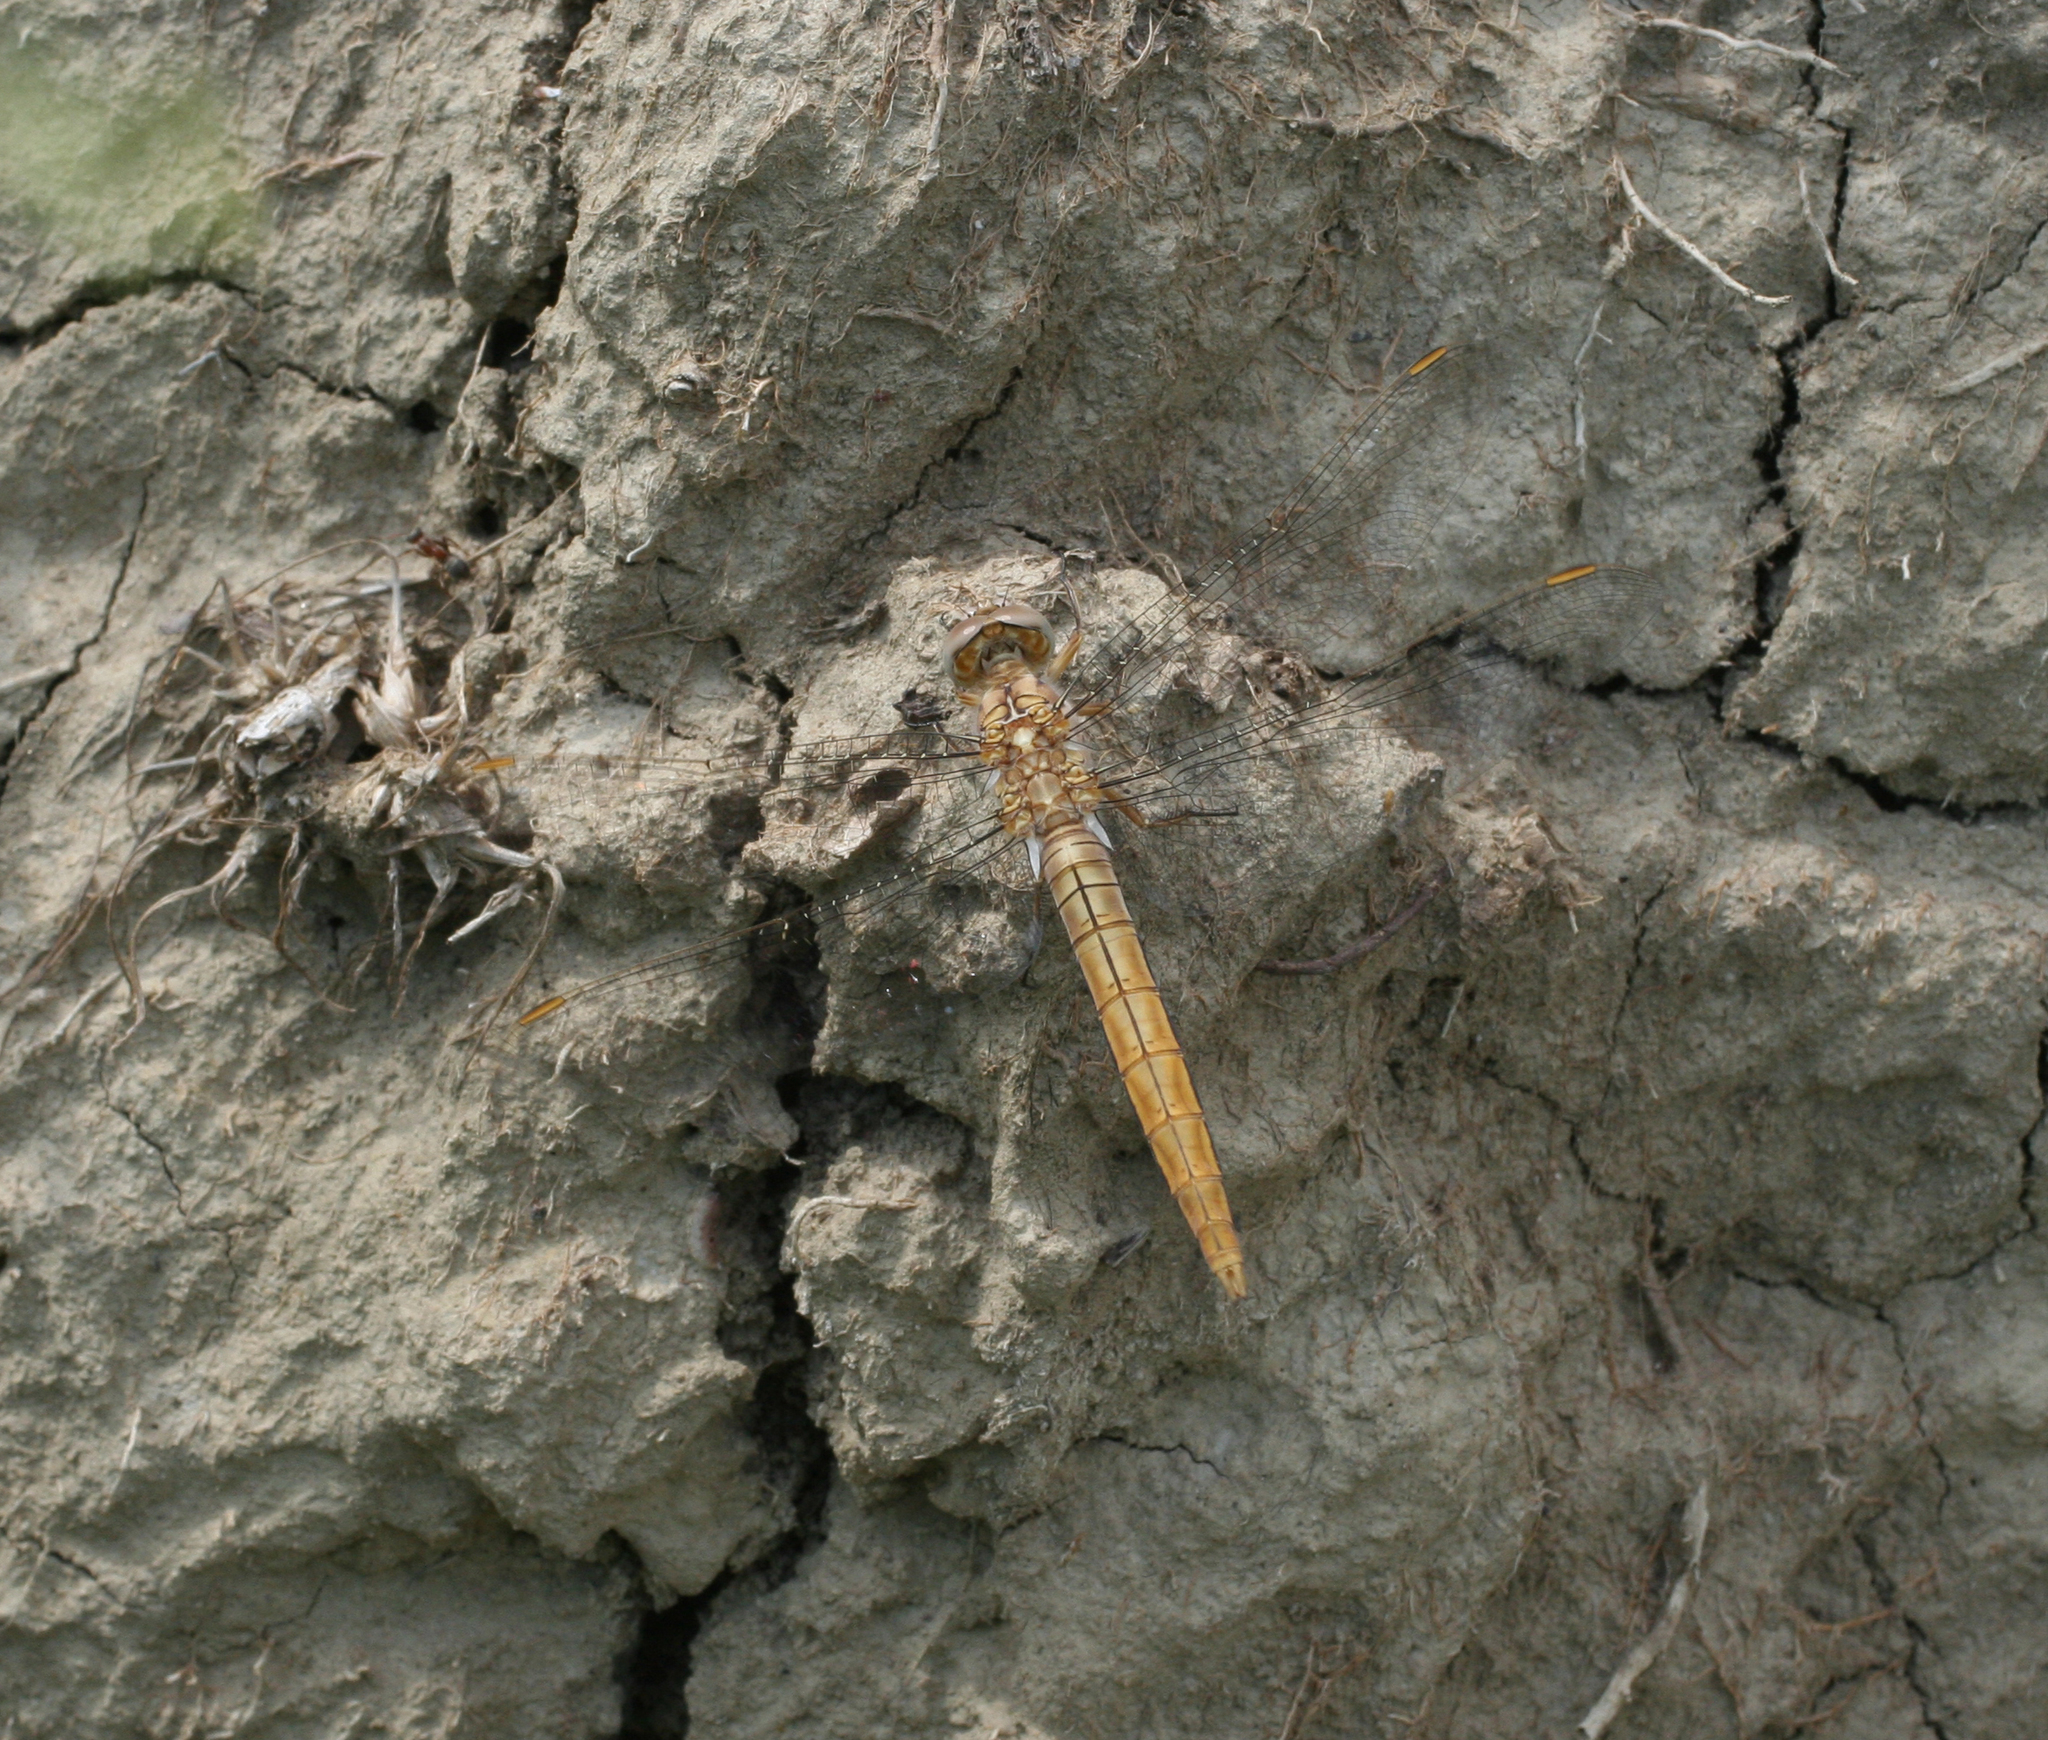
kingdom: Animalia
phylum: Arthropoda
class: Insecta
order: Odonata
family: Libellulidae
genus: Orthetrum
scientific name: Orthetrum brunneum
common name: Southern skimmer
